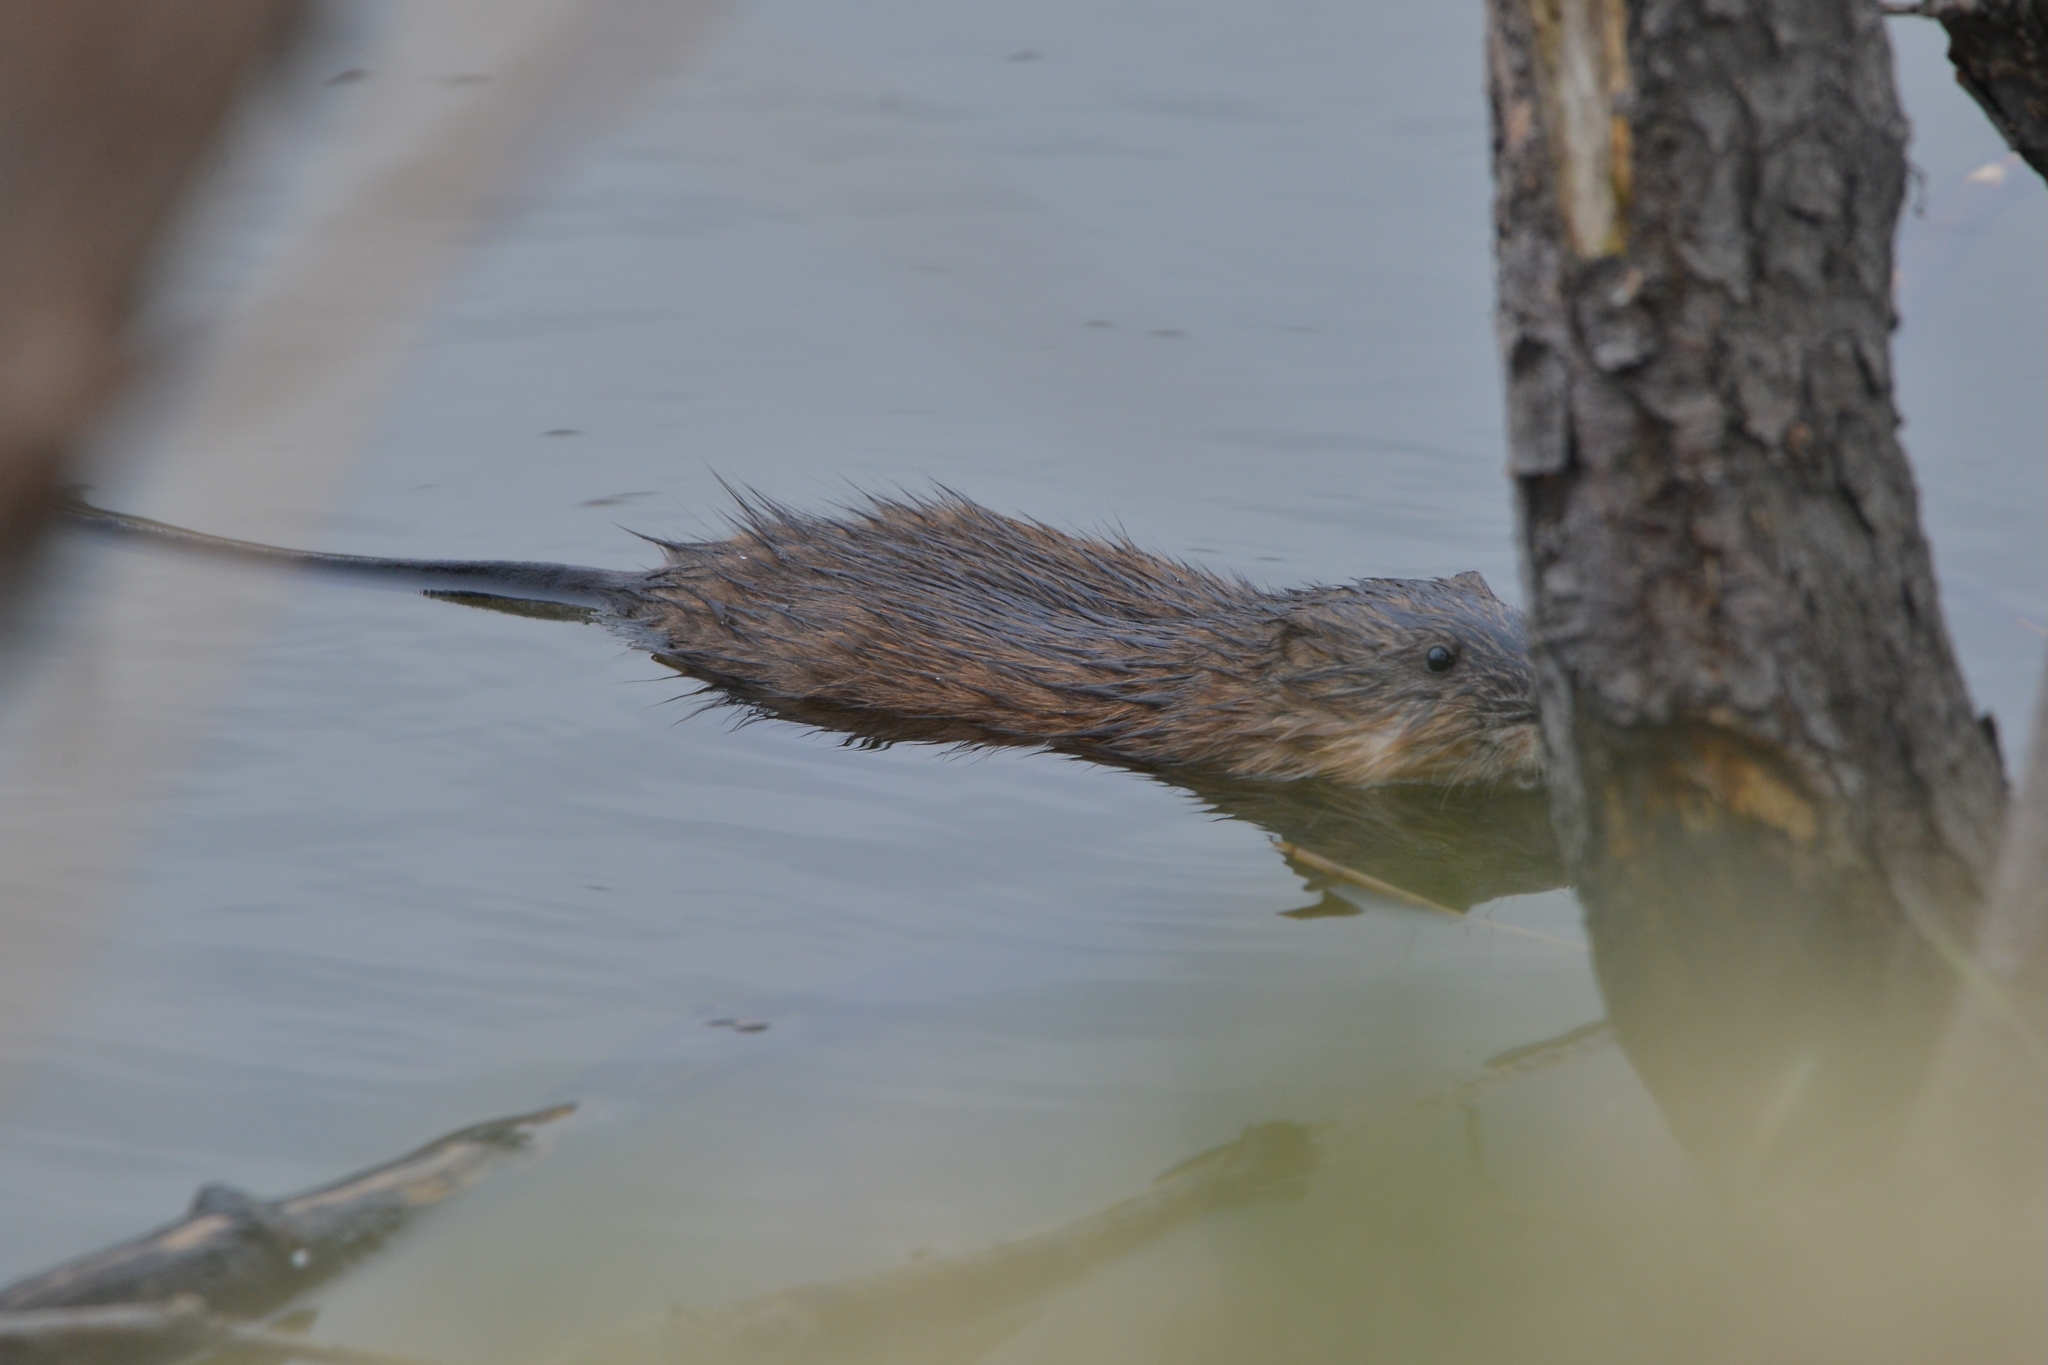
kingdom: Animalia
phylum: Chordata
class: Mammalia
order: Rodentia
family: Cricetidae
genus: Ondatra
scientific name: Ondatra zibethicus
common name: Muskrat
